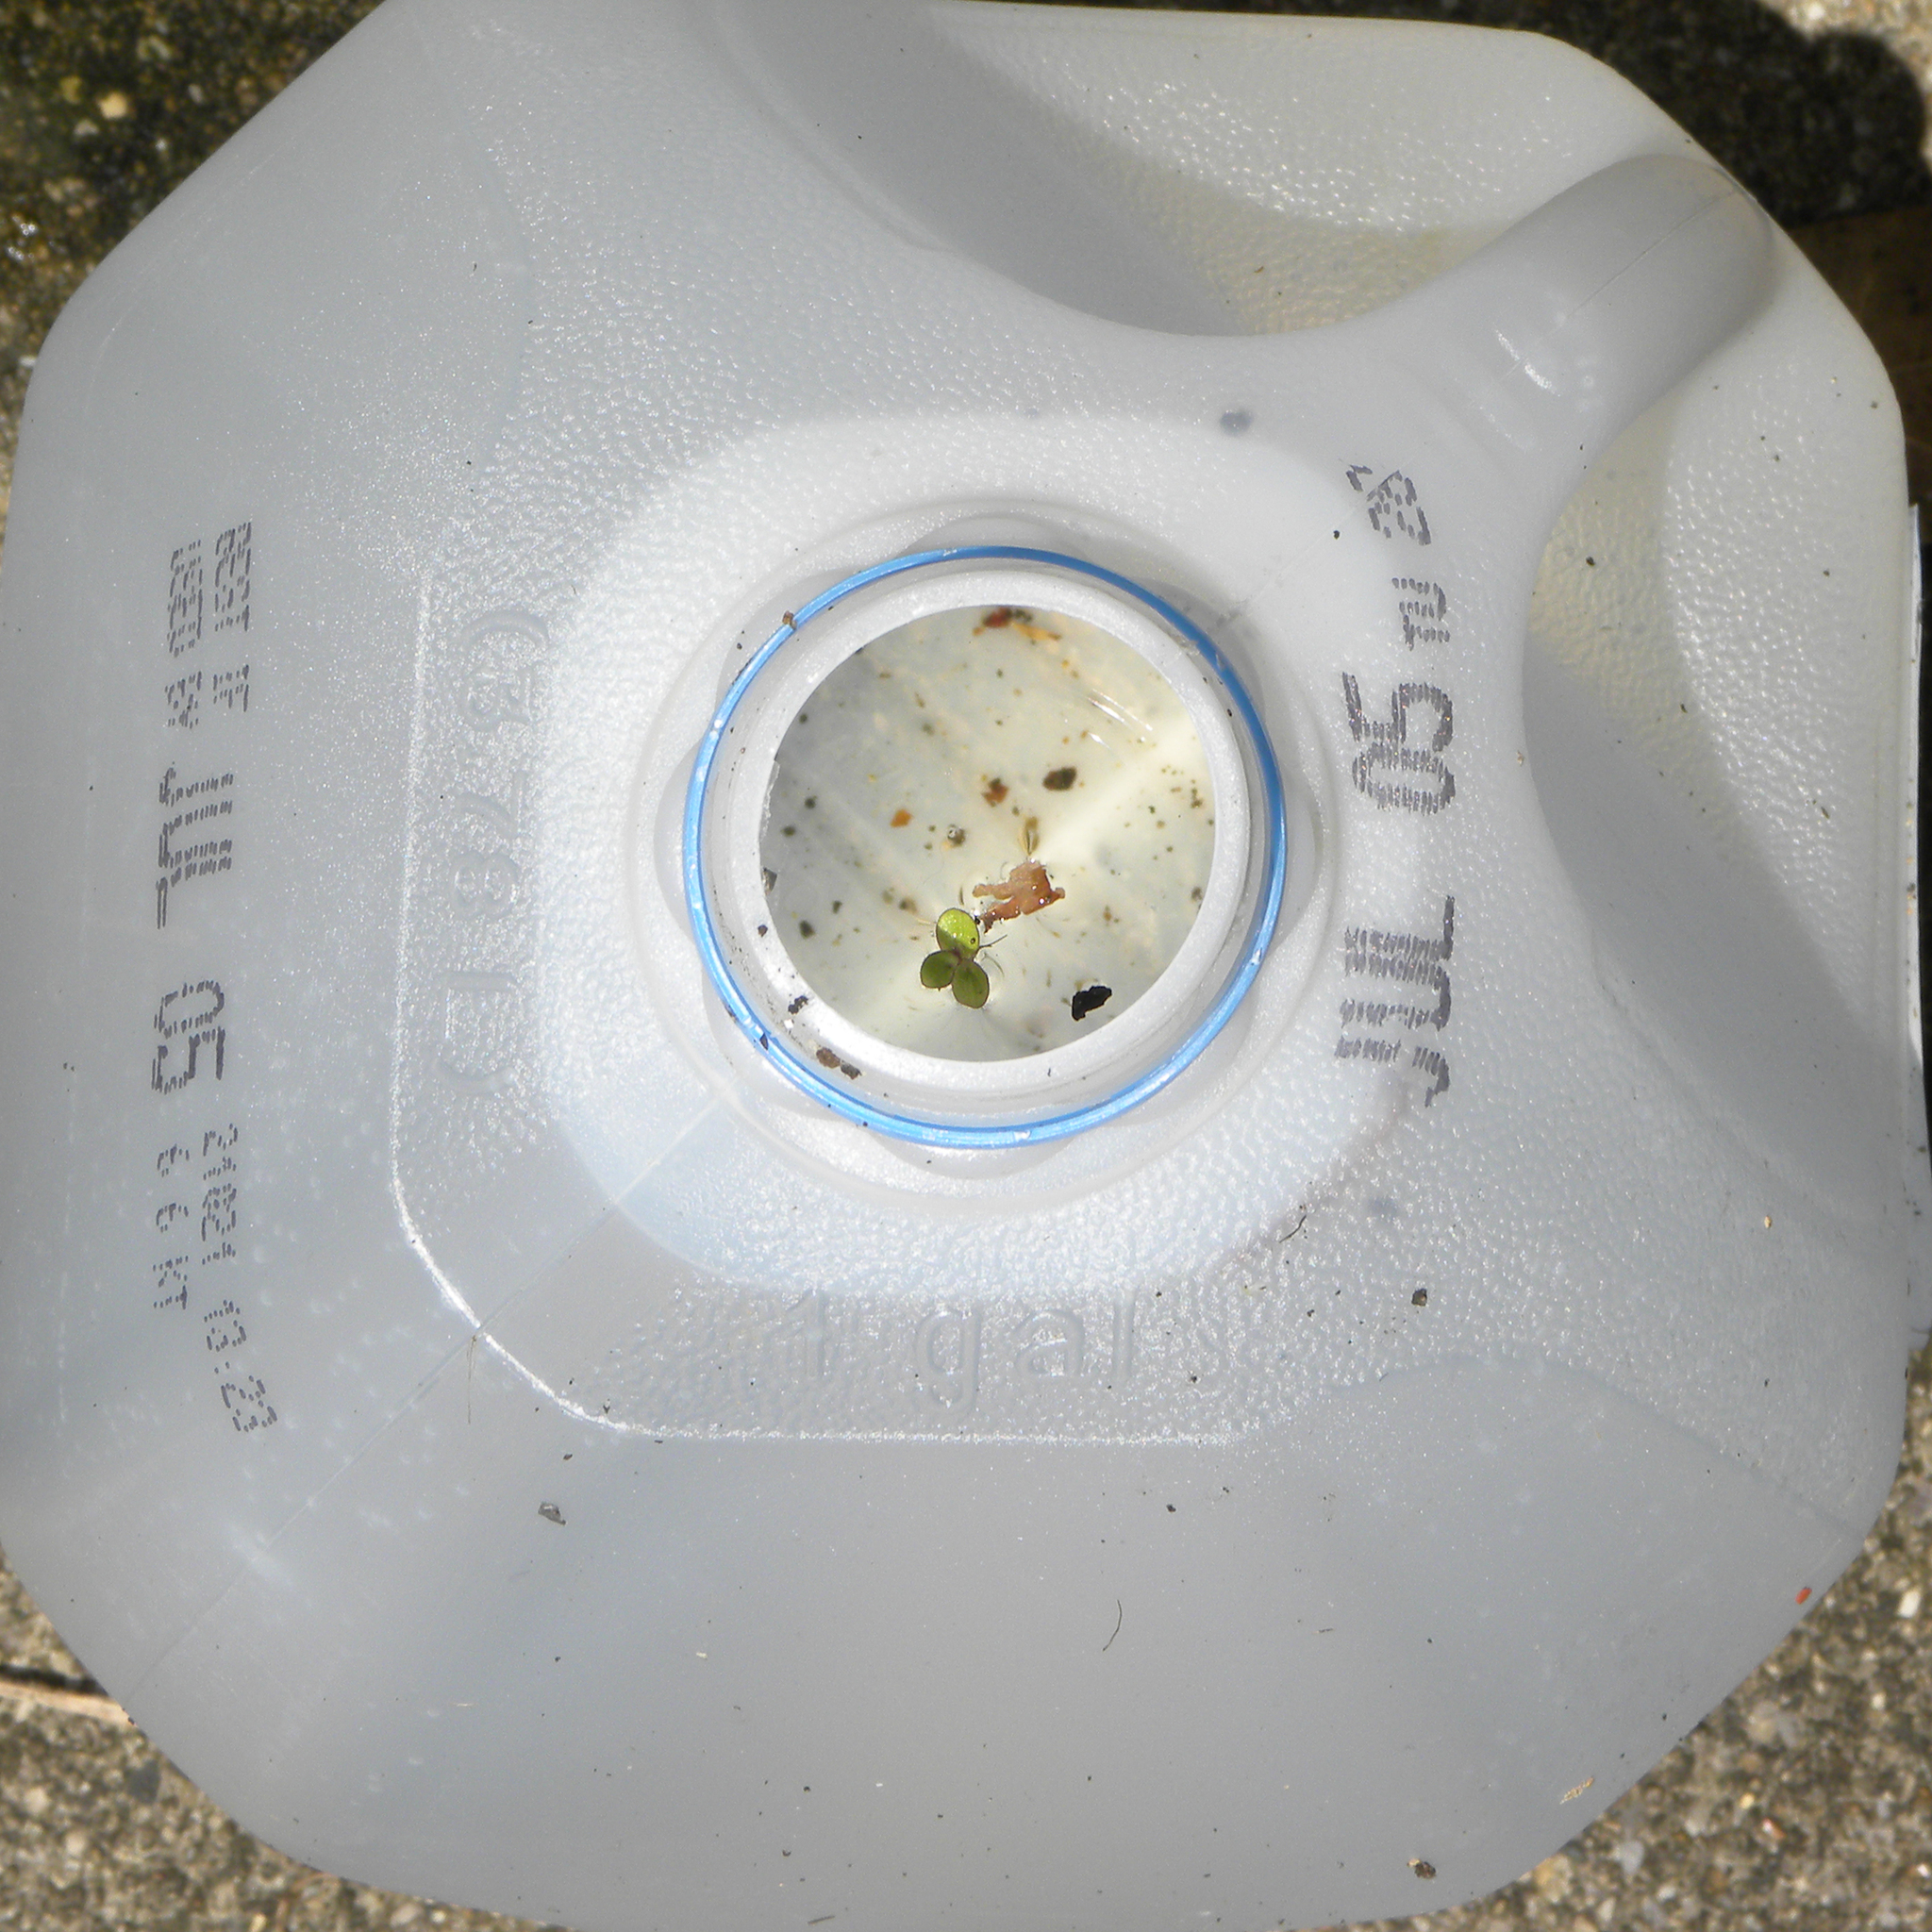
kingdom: Plantae
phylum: Tracheophyta
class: Liliopsida
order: Alismatales
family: Araceae
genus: Lemna
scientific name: Lemna minor
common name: Common duckweed
